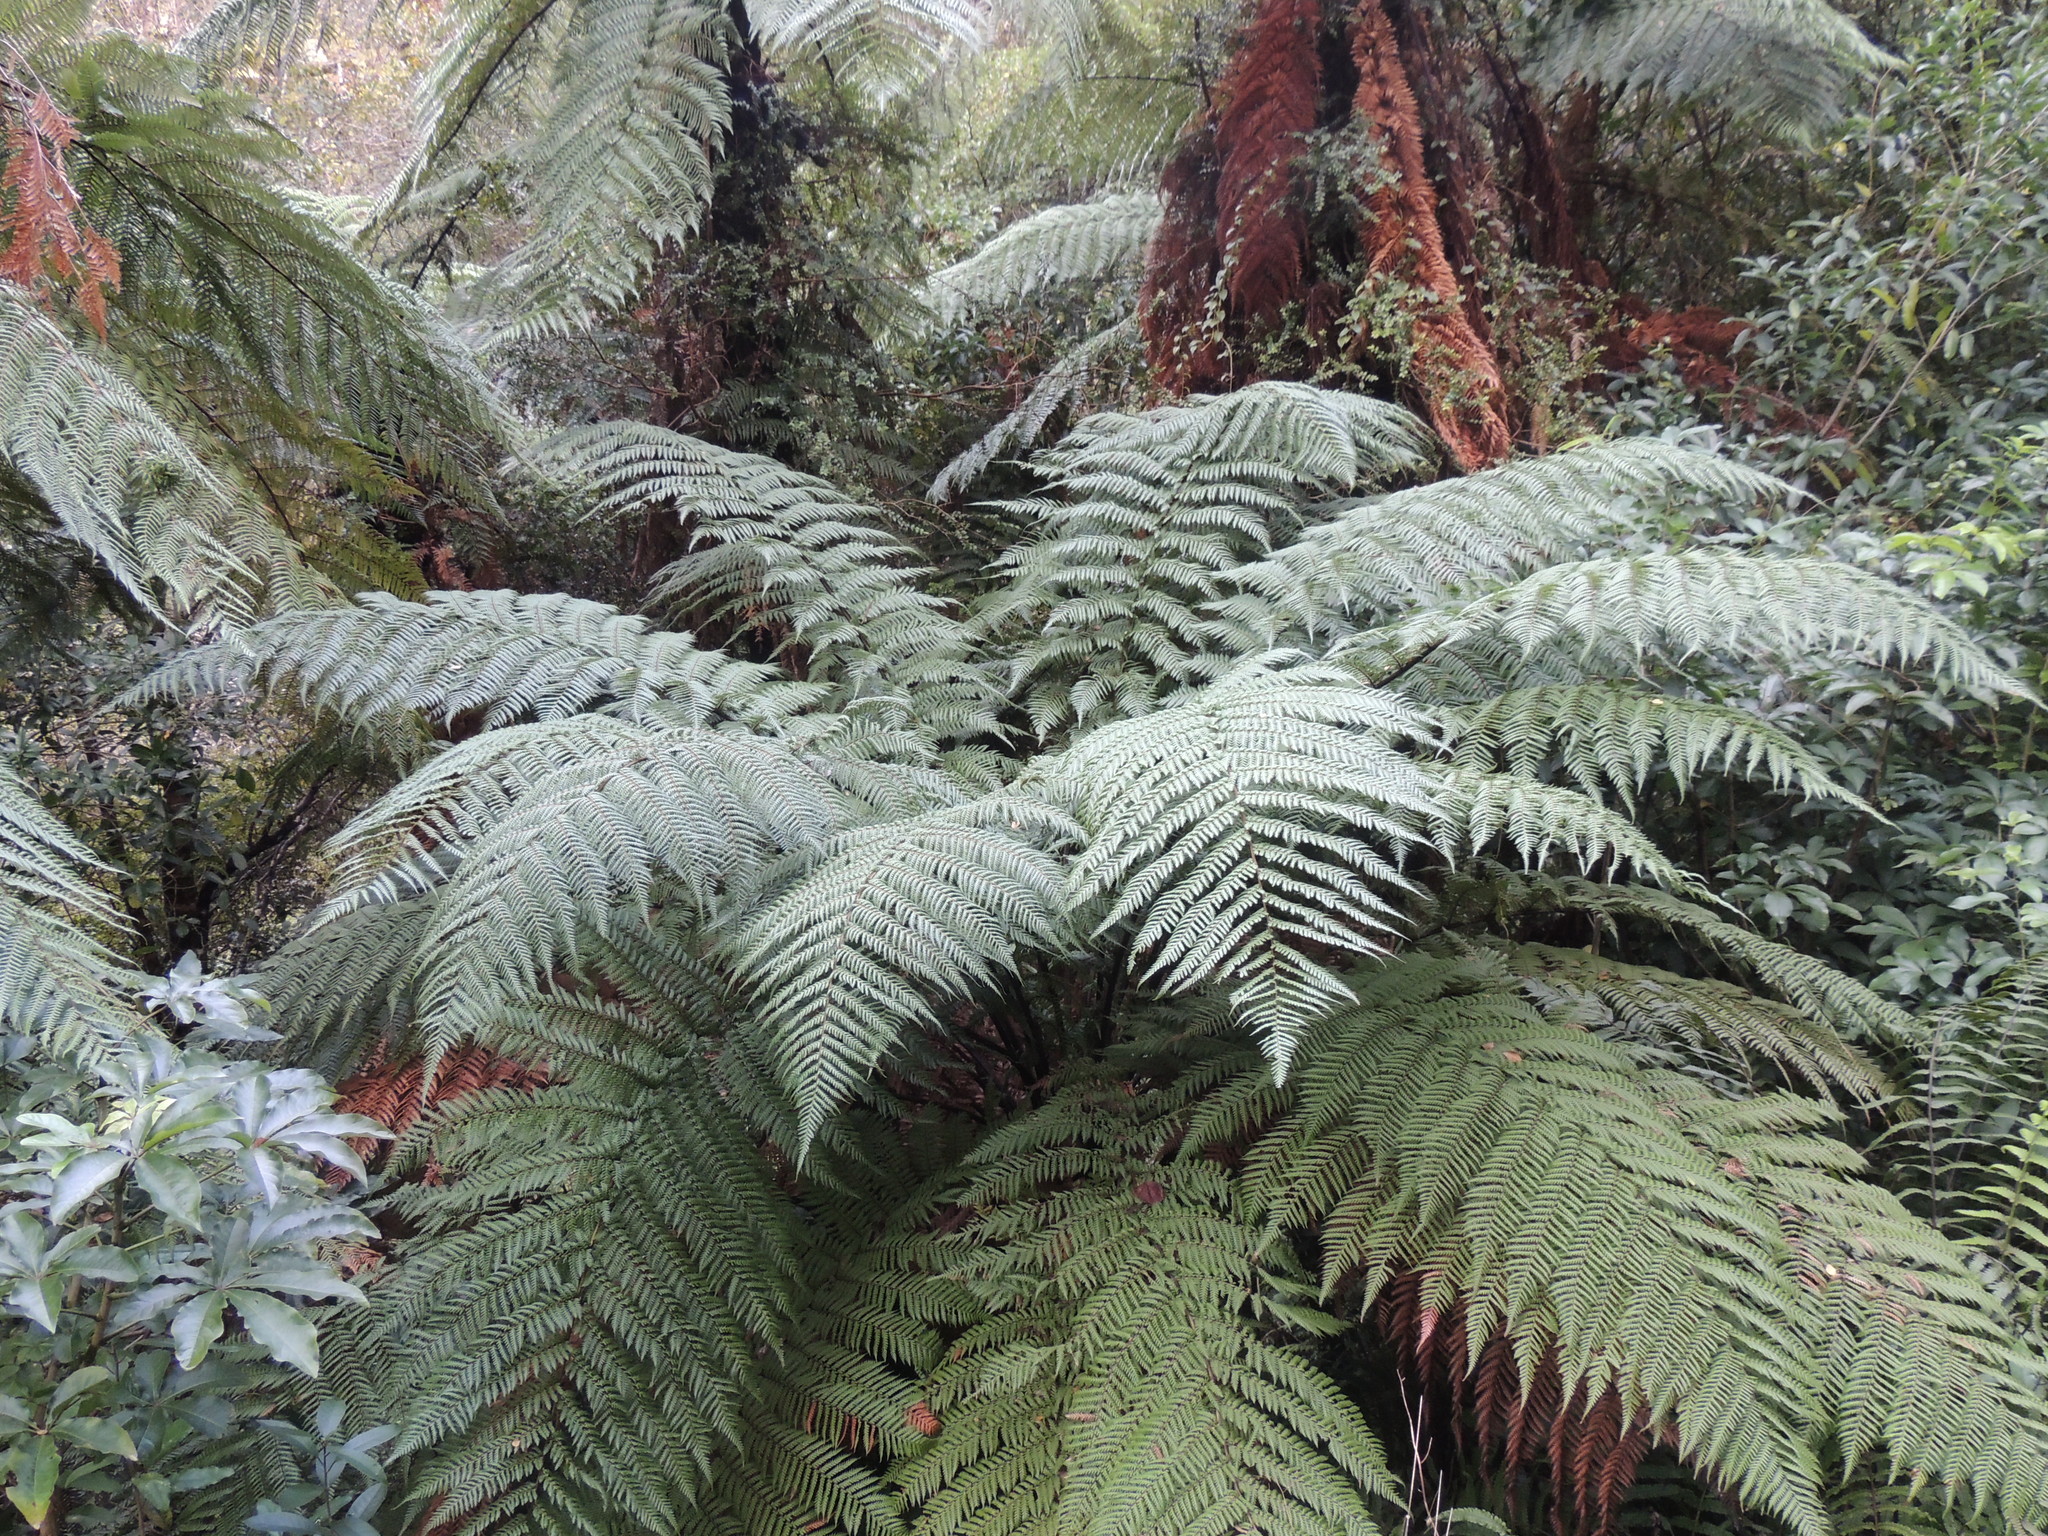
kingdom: Plantae
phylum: Tracheophyta
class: Polypodiopsida
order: Cyatheales
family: Dicksoniaceae
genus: Dicksonia
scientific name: Dicksonia squarrosa
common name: Hard treefern
